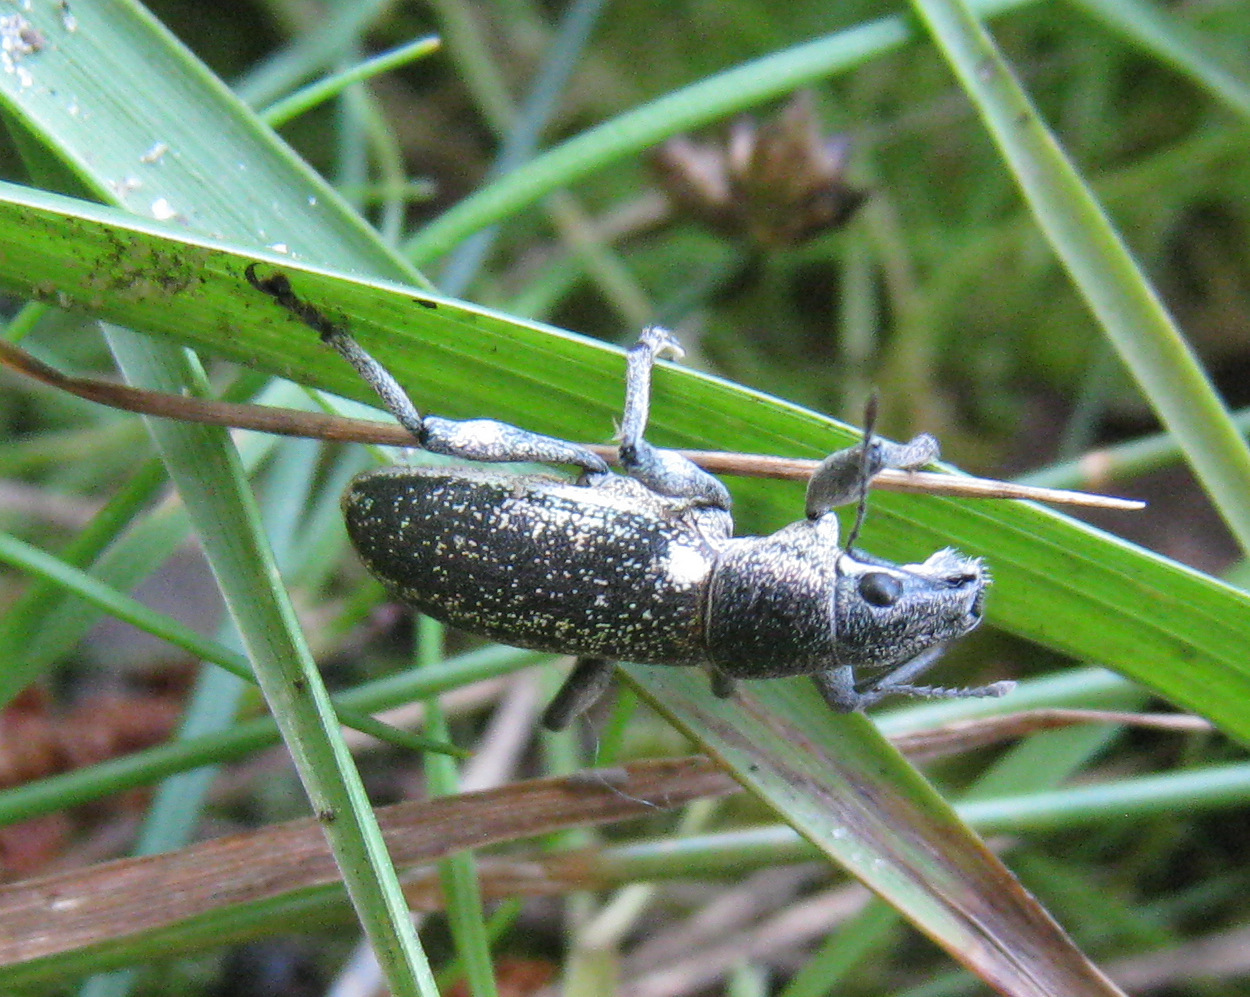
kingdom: Animalia
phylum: Arthropoda
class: Insecta
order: Coleoptera
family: Curculionidae
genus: Brachyderes
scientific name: Brachyderes lusitanicus
